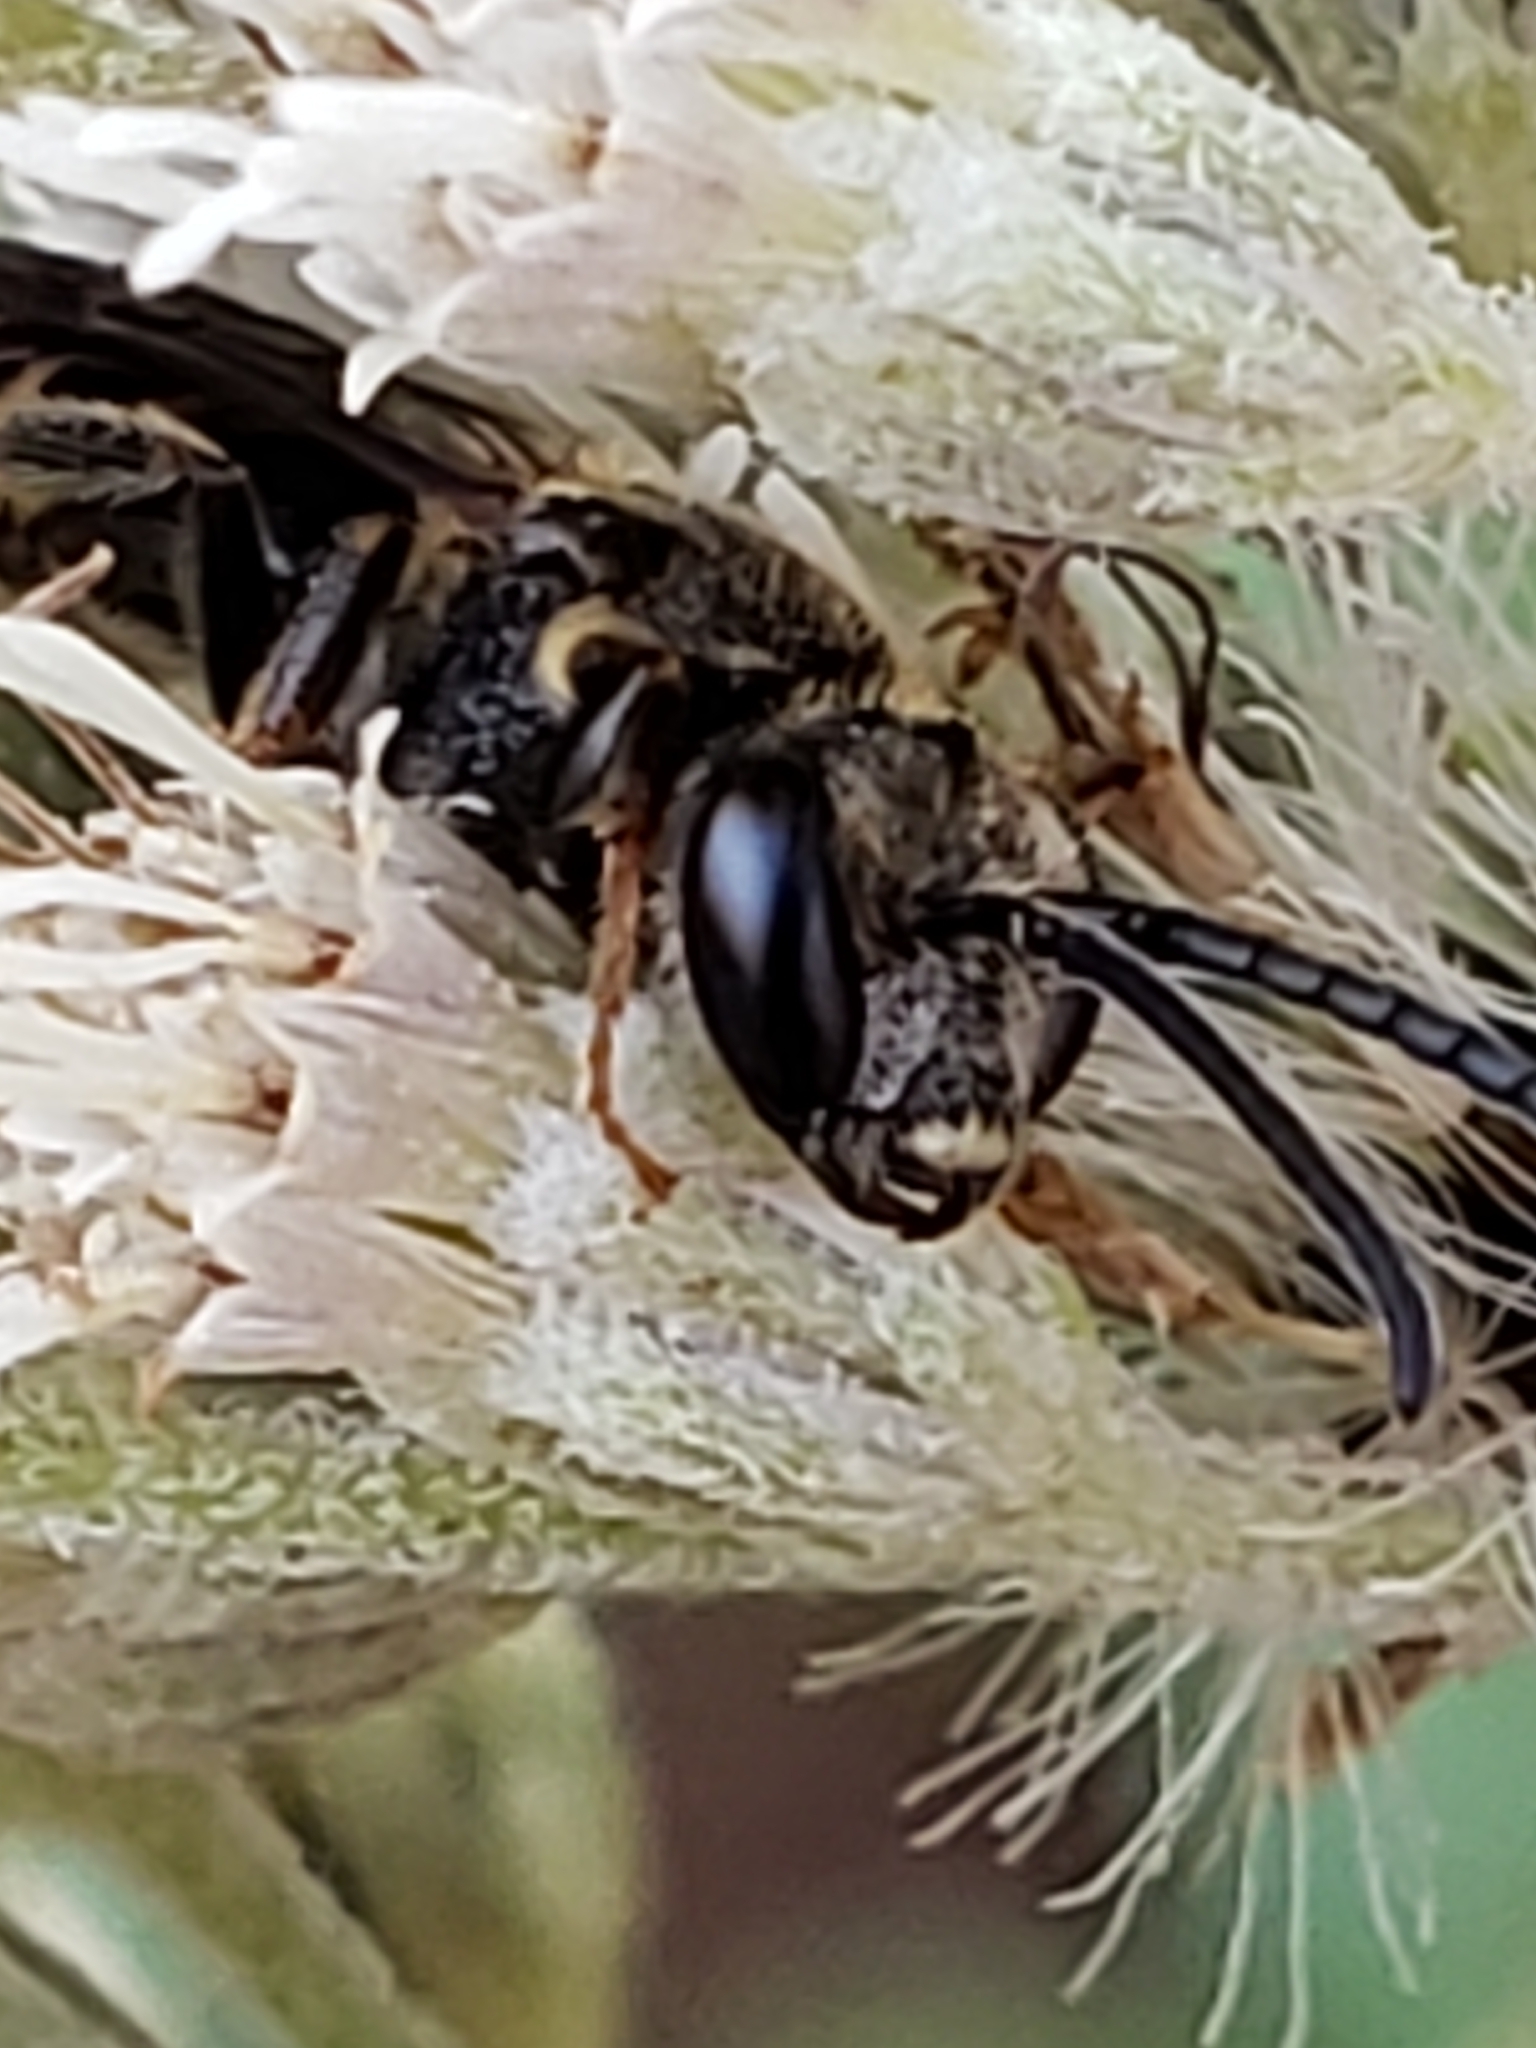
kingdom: Animalia
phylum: Arthropoda
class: Insecta
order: Hymenoptera
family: Halictidae
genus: Lasioglossum
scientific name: Lasioglossum fuscipenne
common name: Brown-winged sweat bee
